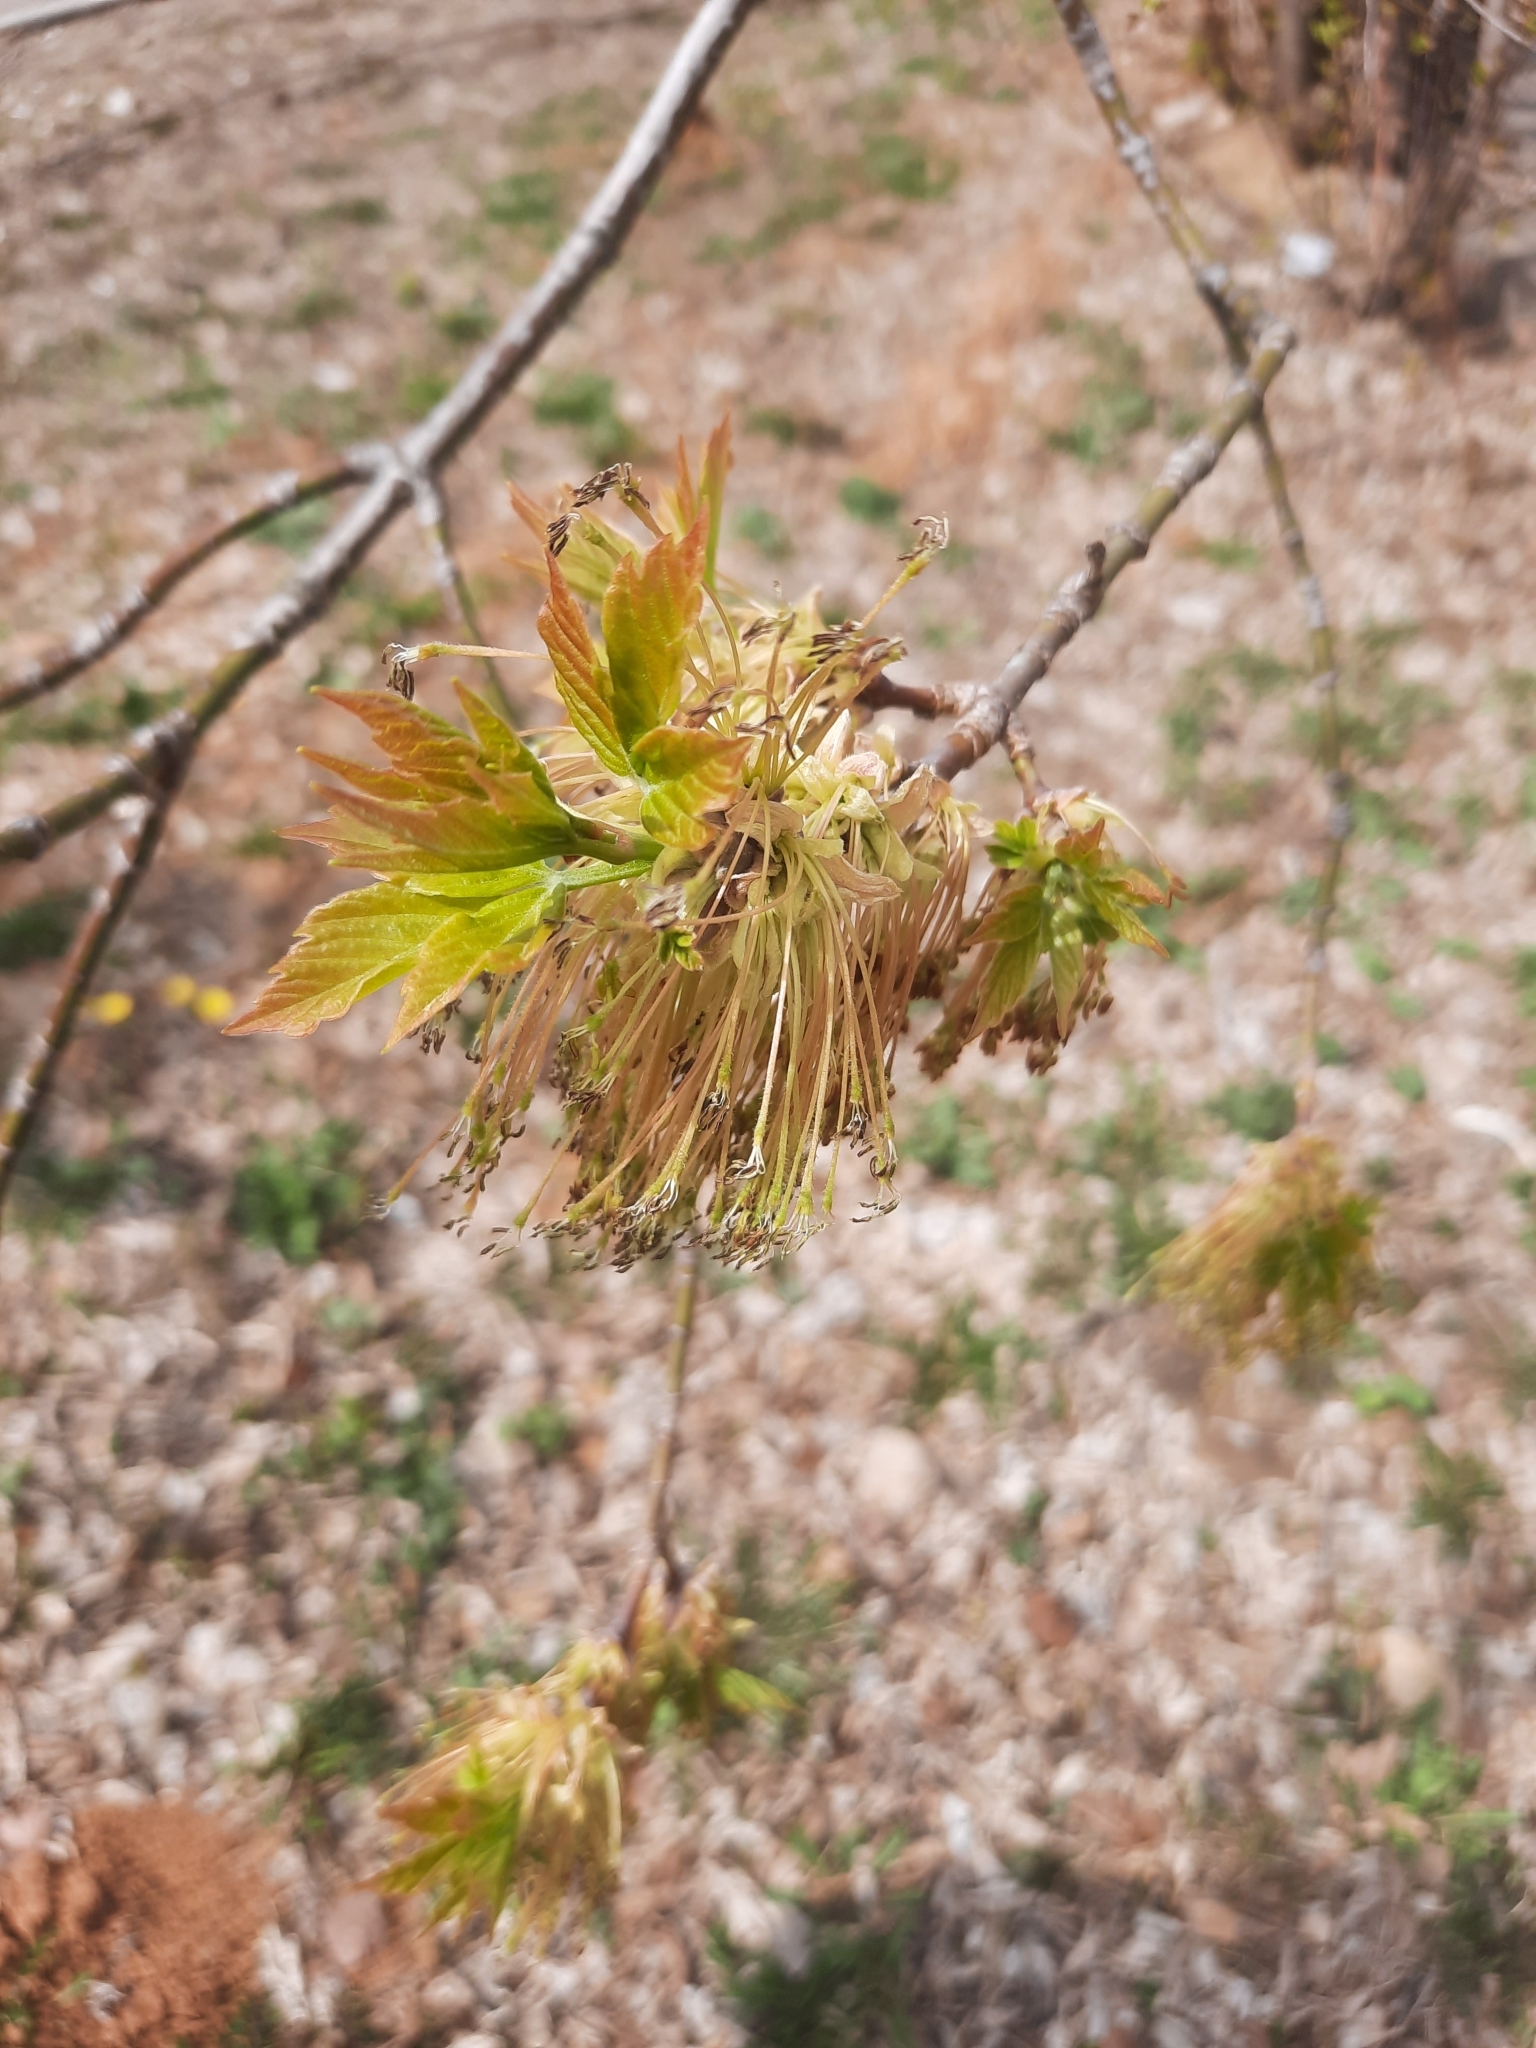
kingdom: Plantae
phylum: Tracheophyta
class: Magnoliopsida
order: Sapindales
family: Sapindaceae
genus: Acer
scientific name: Acer negundo
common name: Ashleaf maple
